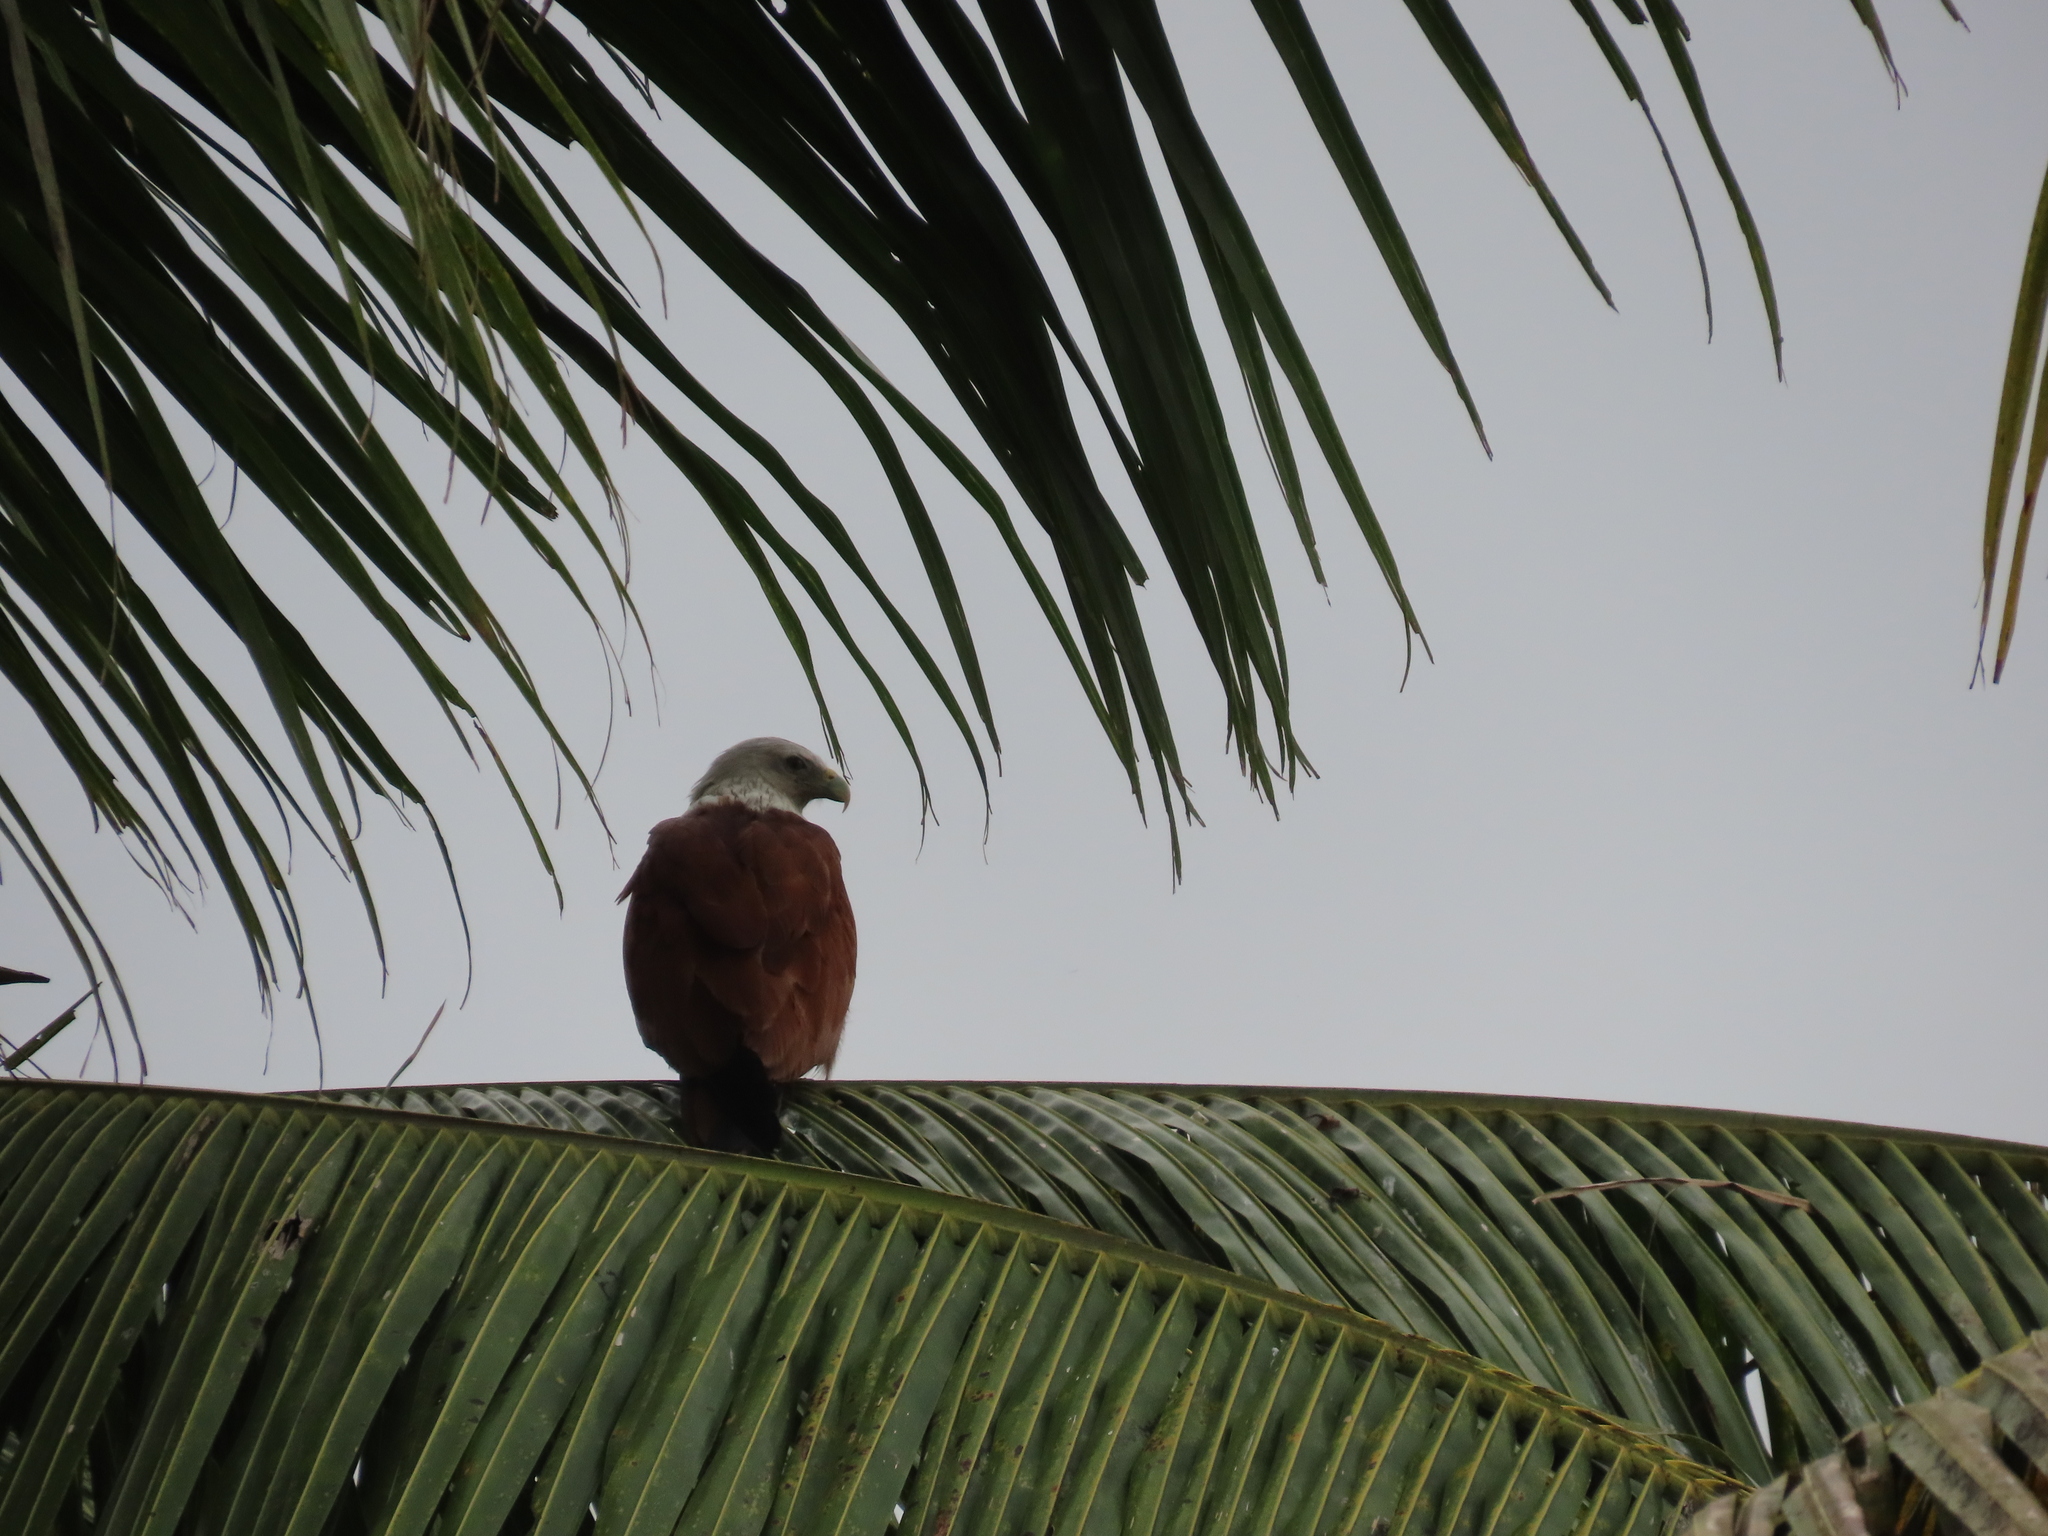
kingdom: Animalia
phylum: Chordata
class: Aves
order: Accipitriformes
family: Accipitridae
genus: Haliastur
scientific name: Haliastur indus
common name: Brahminy kite
